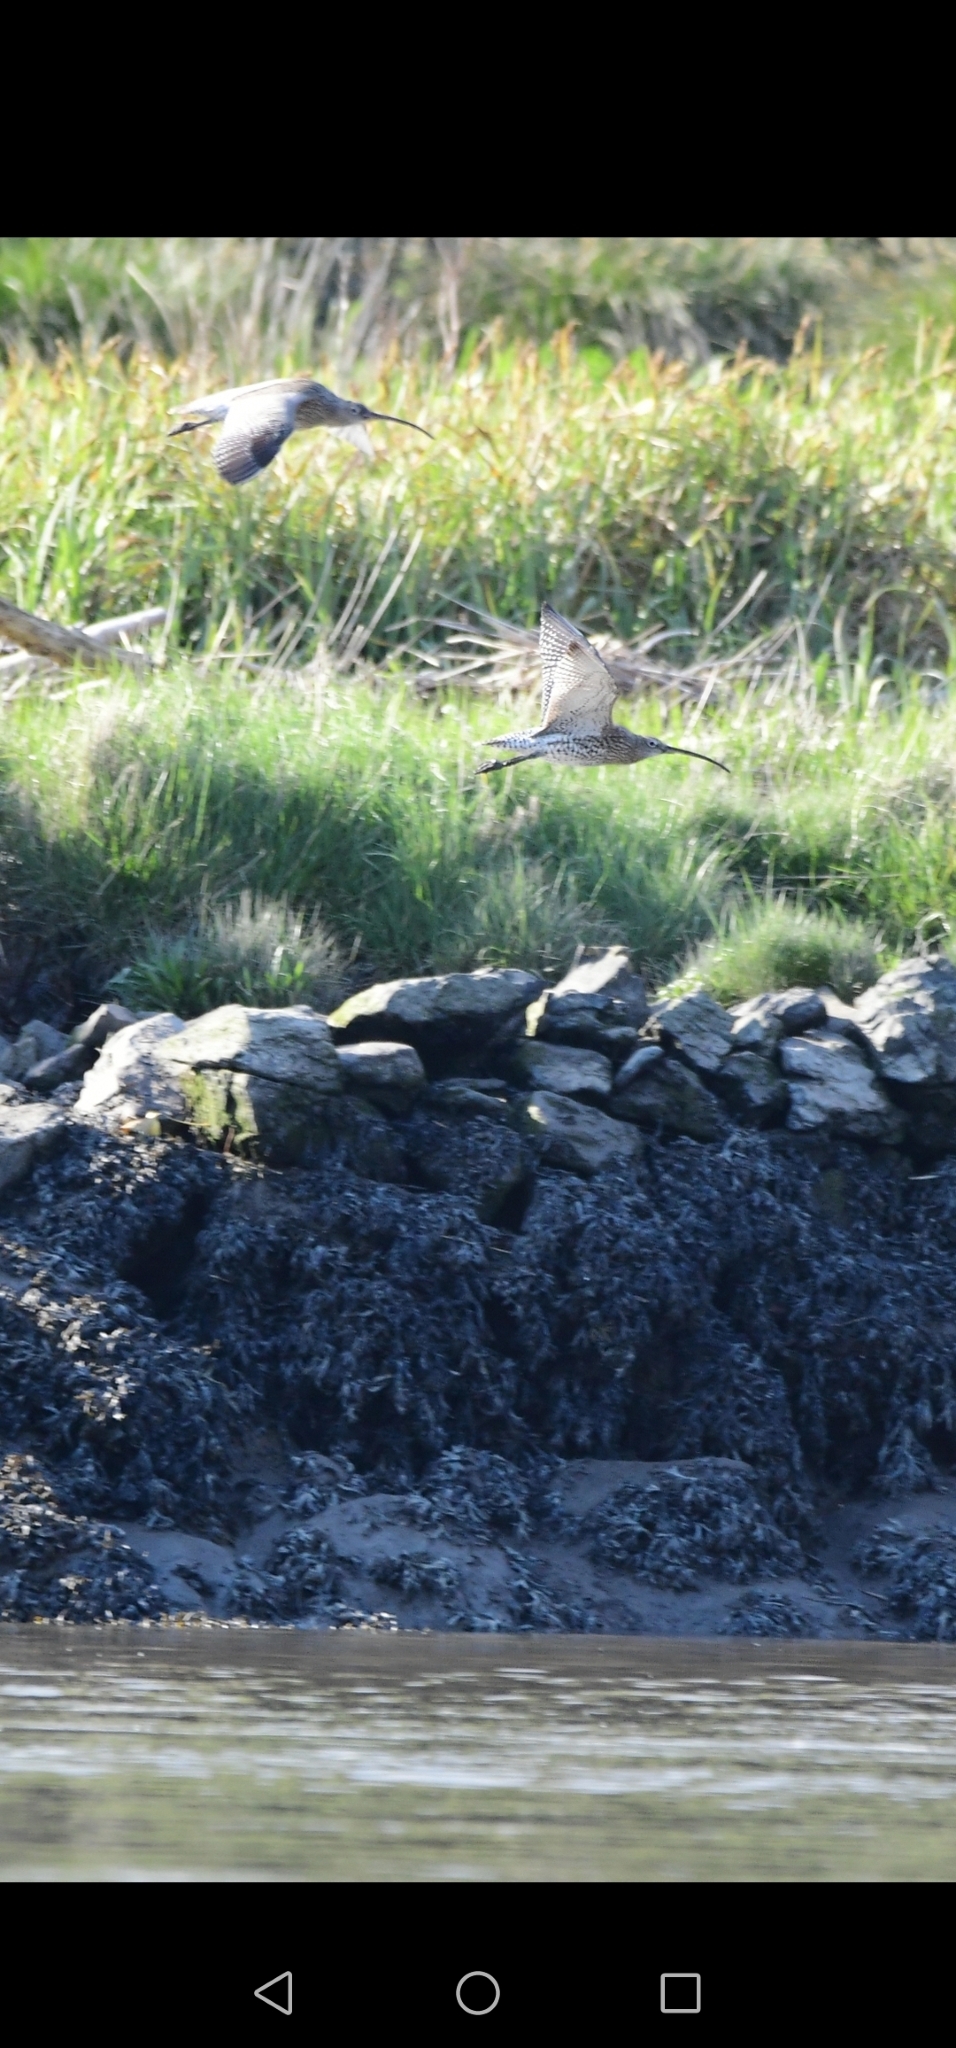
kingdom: Animalia
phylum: Chordata
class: Aves
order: Charadriiformes
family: Scolopacidae
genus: Numenius
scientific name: Numenius arquata
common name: Eurasian curlew
